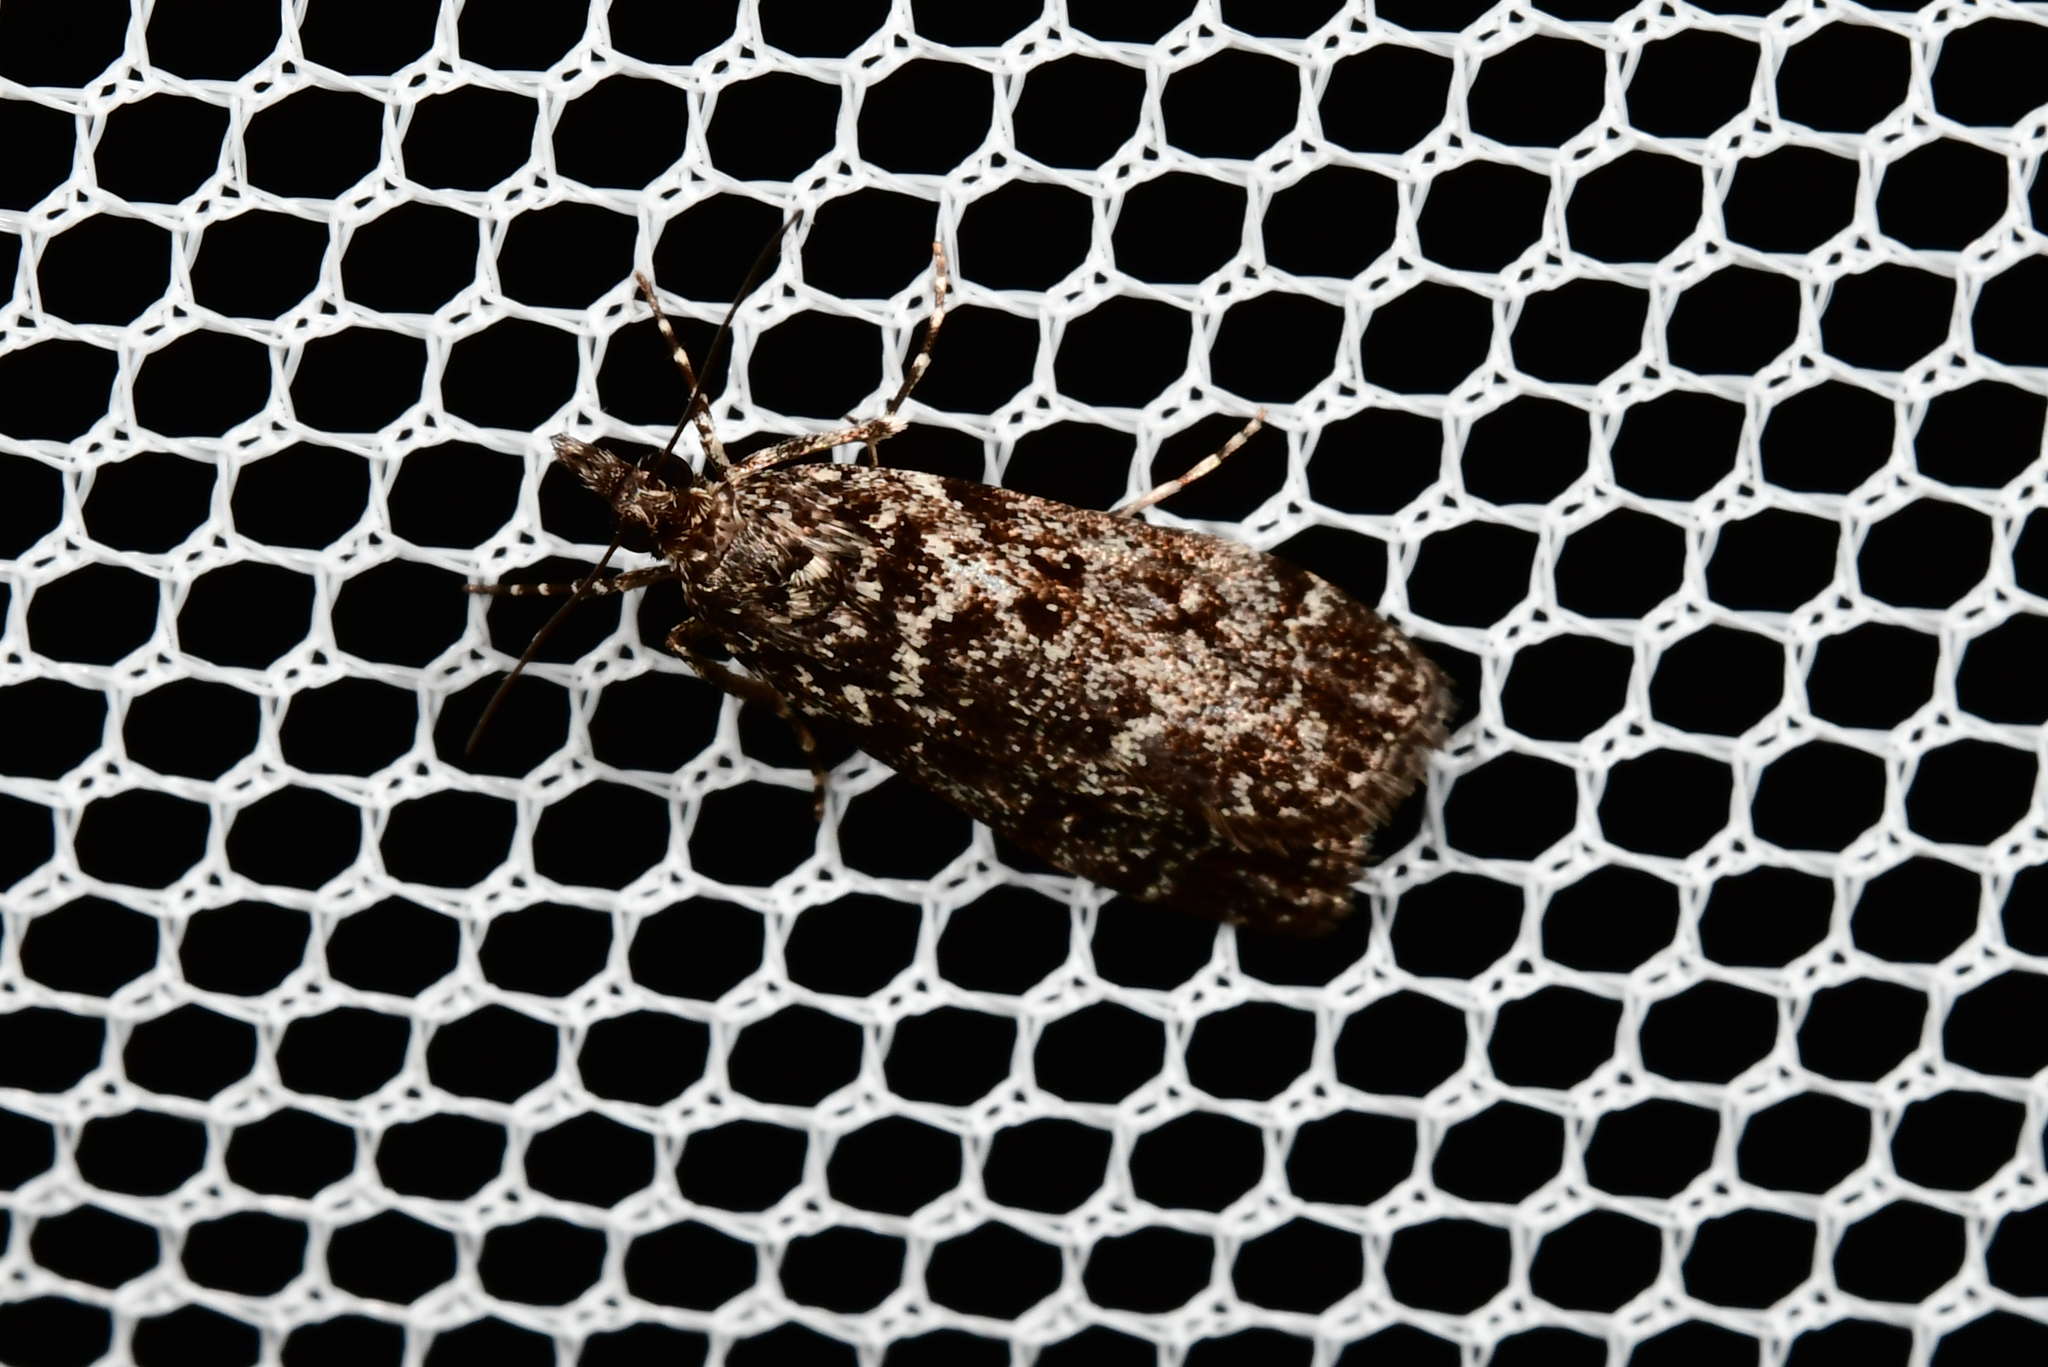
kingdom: Animalia
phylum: Arthropoda
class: Insecta
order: Lepidoptera
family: Crambidae
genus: Eudonia
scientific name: Eudonia philerga
